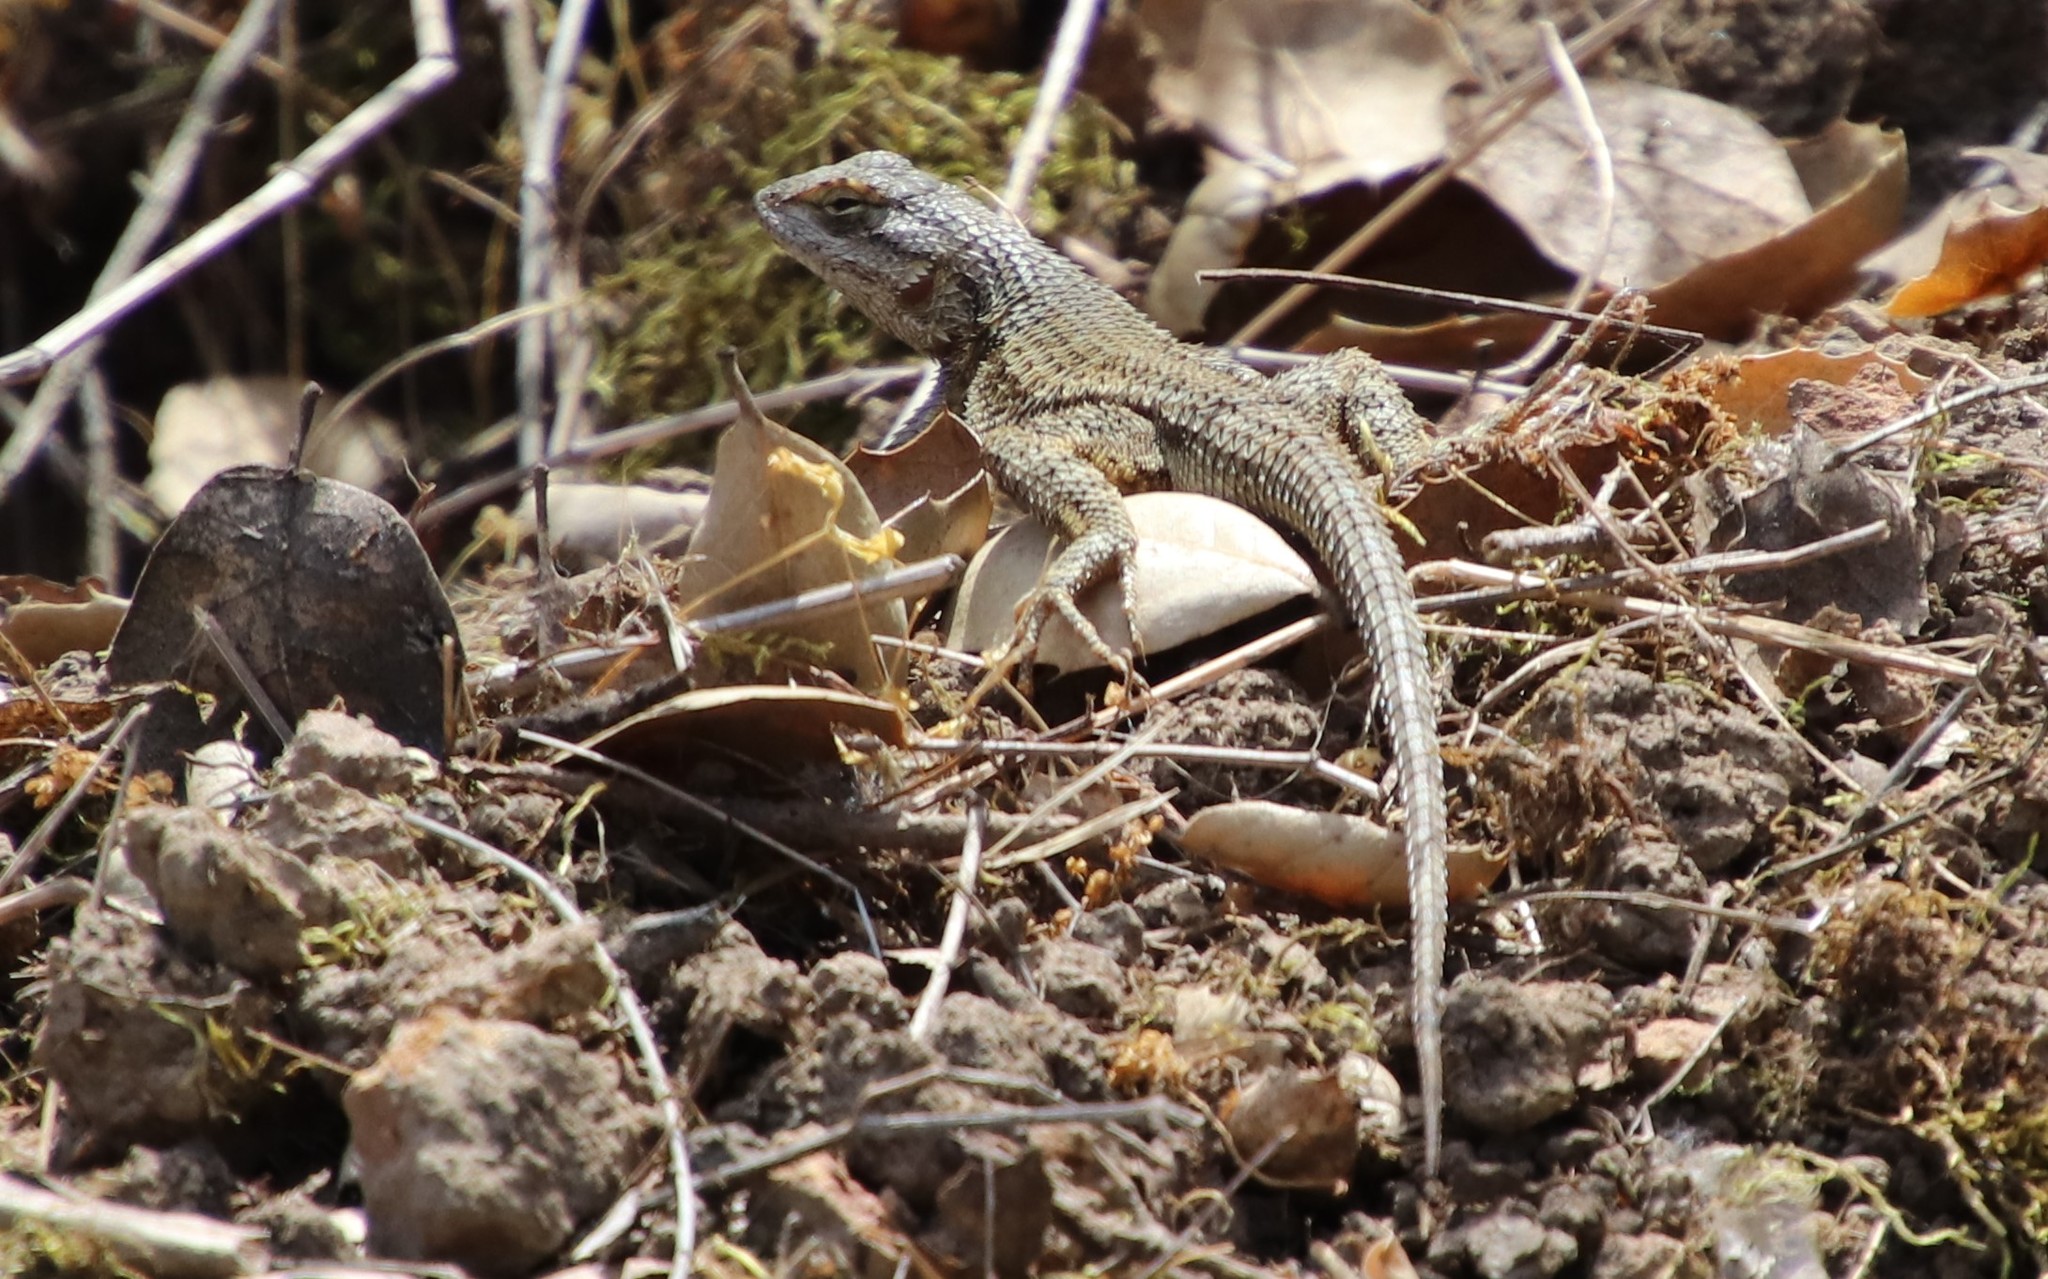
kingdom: Animalia
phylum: Chordata
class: Squamata
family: Phrynosomatidae
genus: Sceloporus
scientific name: Sceloporus occidentalis
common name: Western fence lizard
